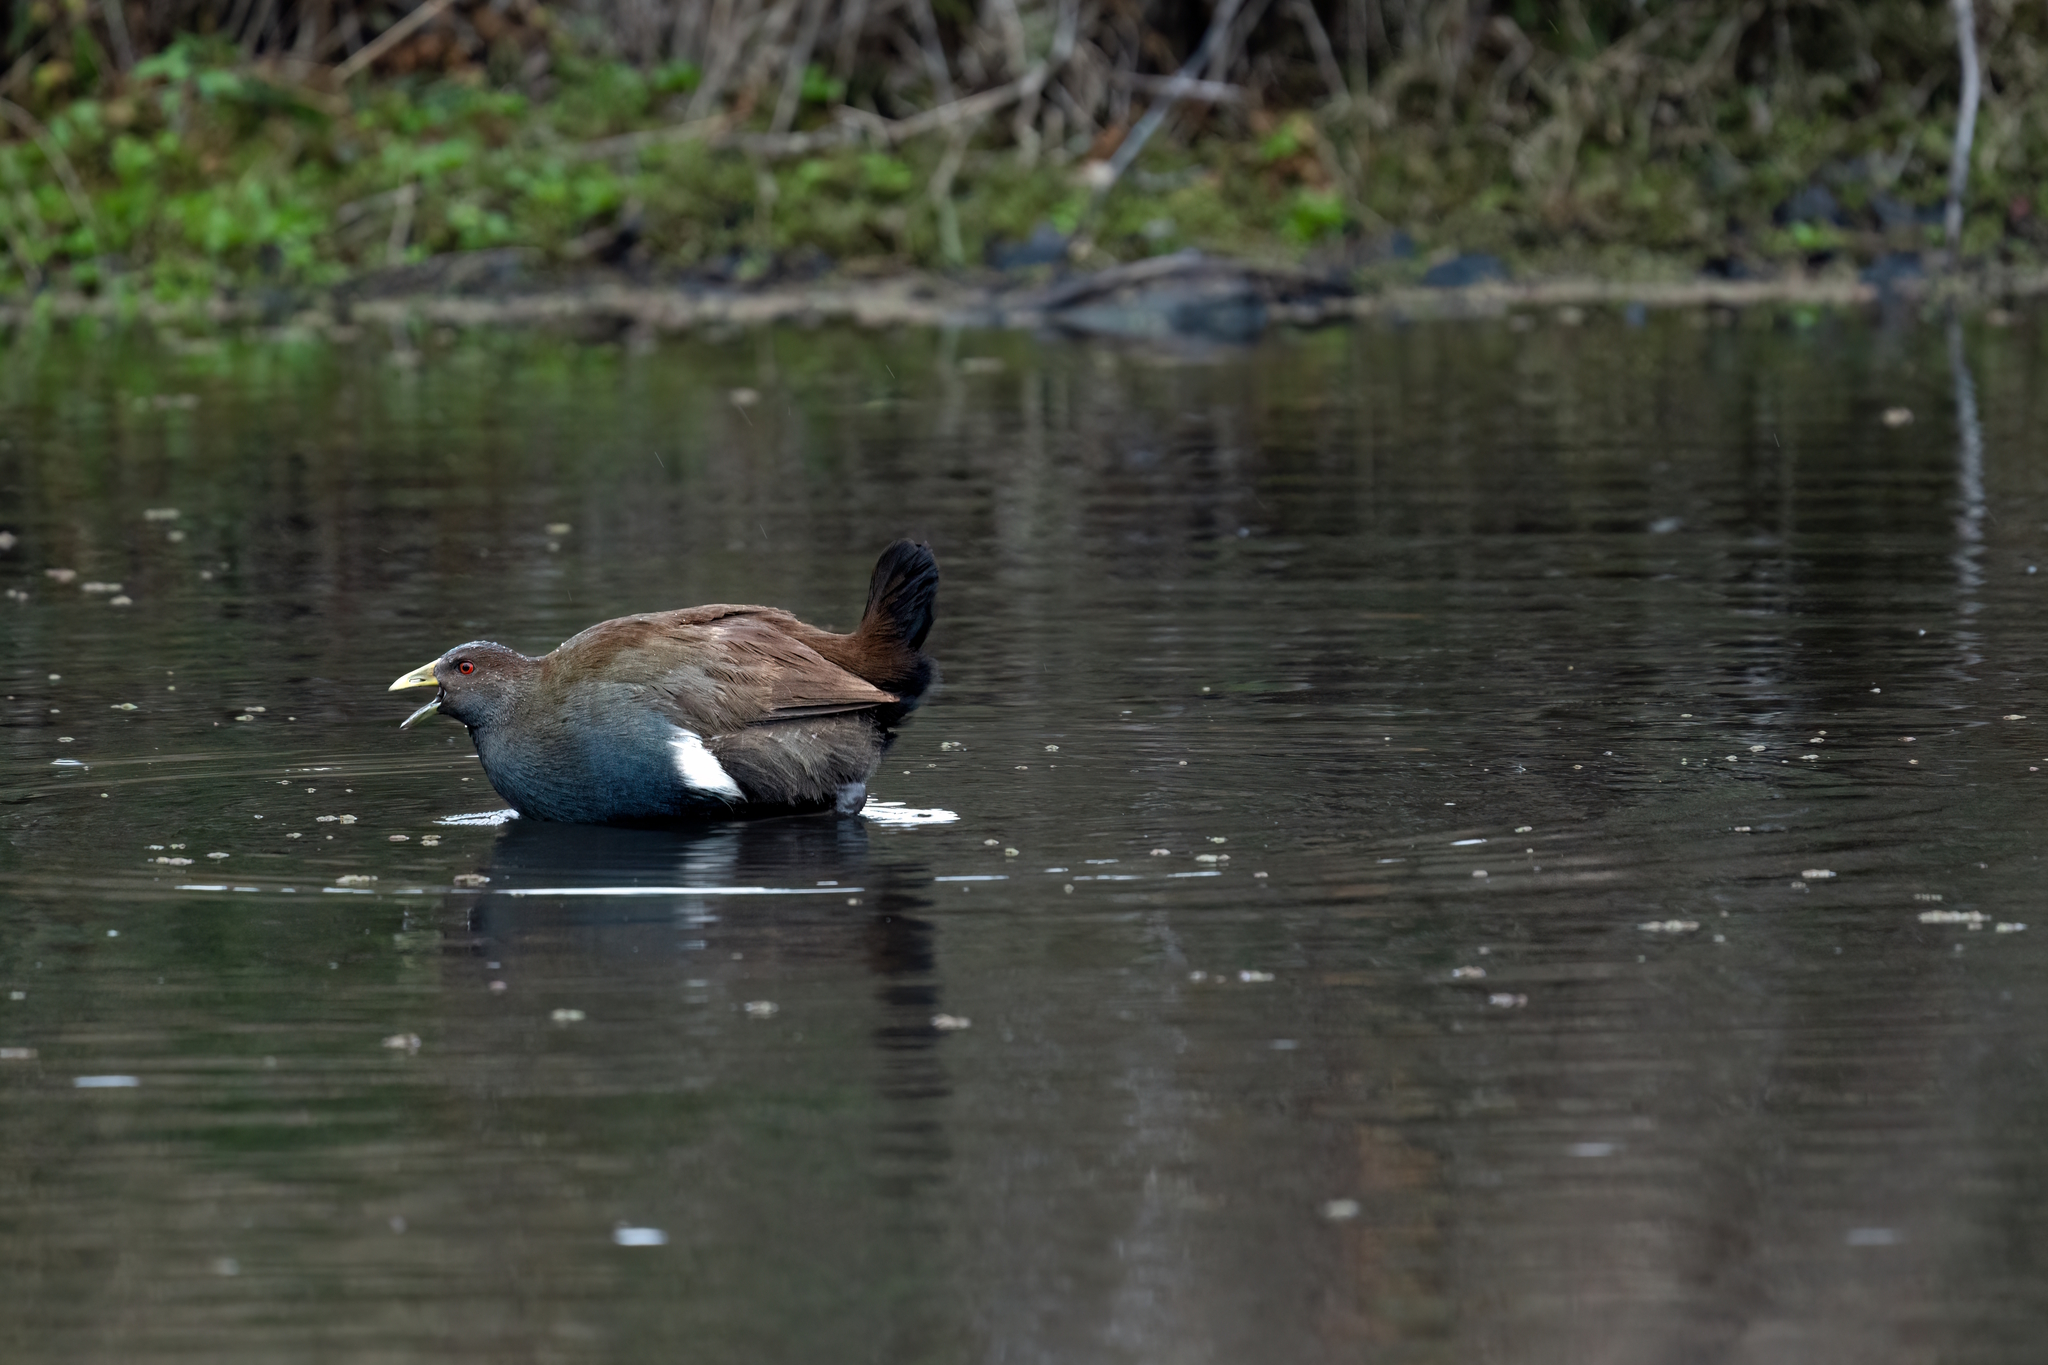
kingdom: Animalia
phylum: Chordata
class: Aves
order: Gruiformes
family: Rallidae
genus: Gallinula
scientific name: Gallinula mortierii
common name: Tasmanian nativehen
